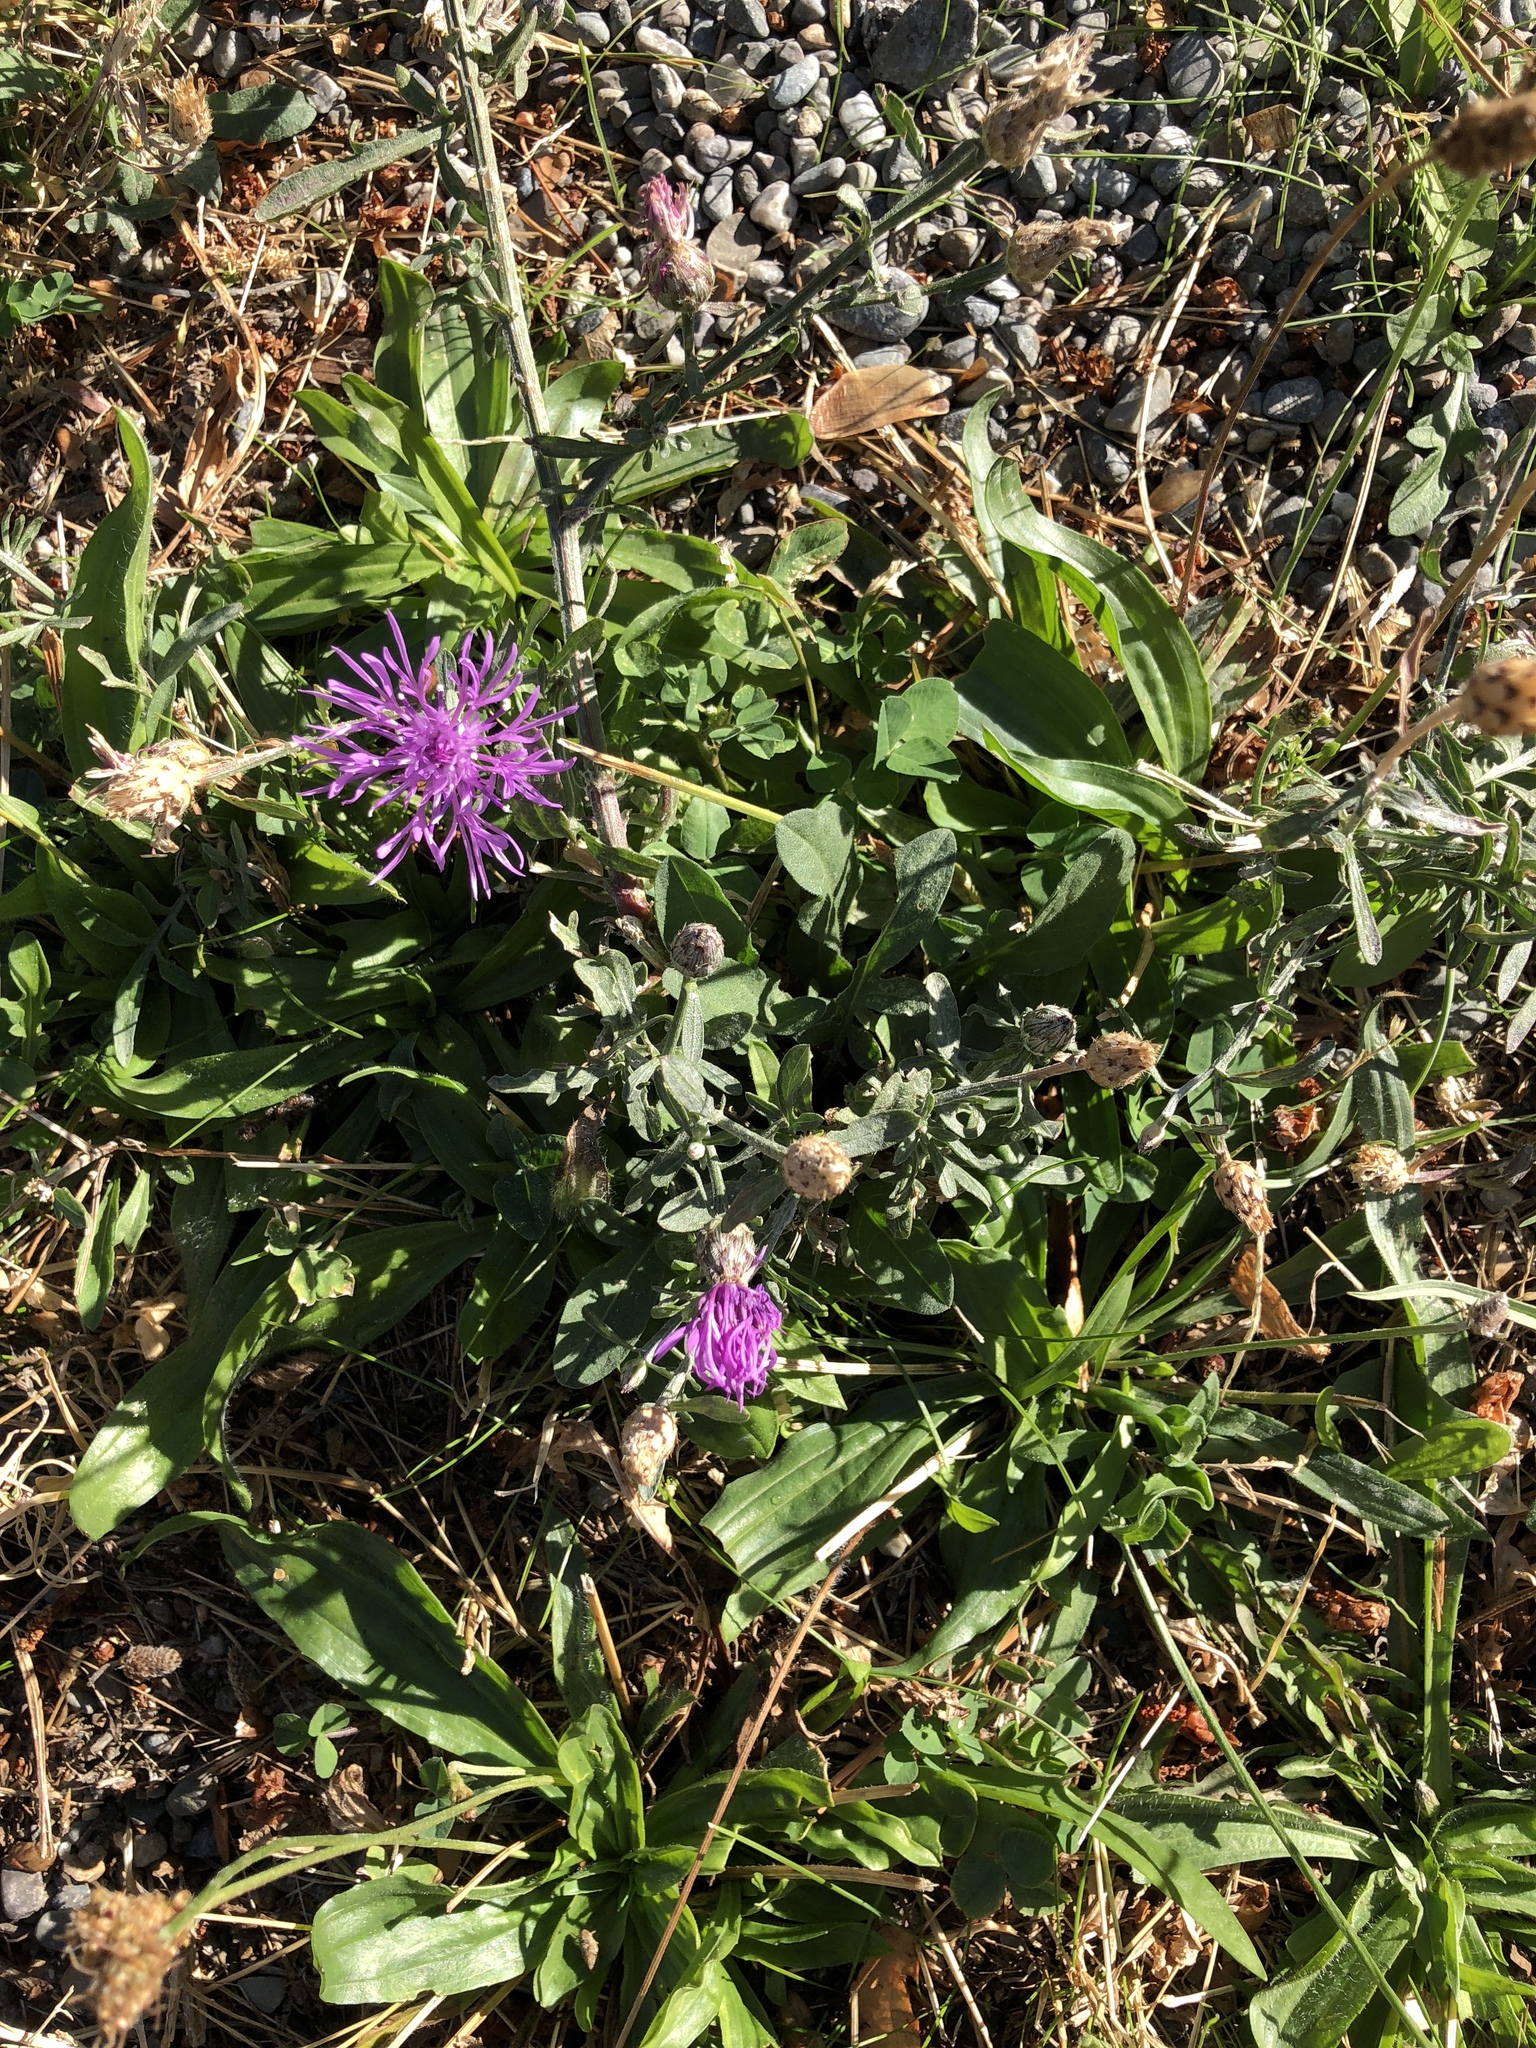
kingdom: Plantae
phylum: Tracheophyta
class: Magnoliopsida
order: Asterales
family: Asteraceae
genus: Centaurea
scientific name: Centaurea stoebe
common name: Spotted knapweed
